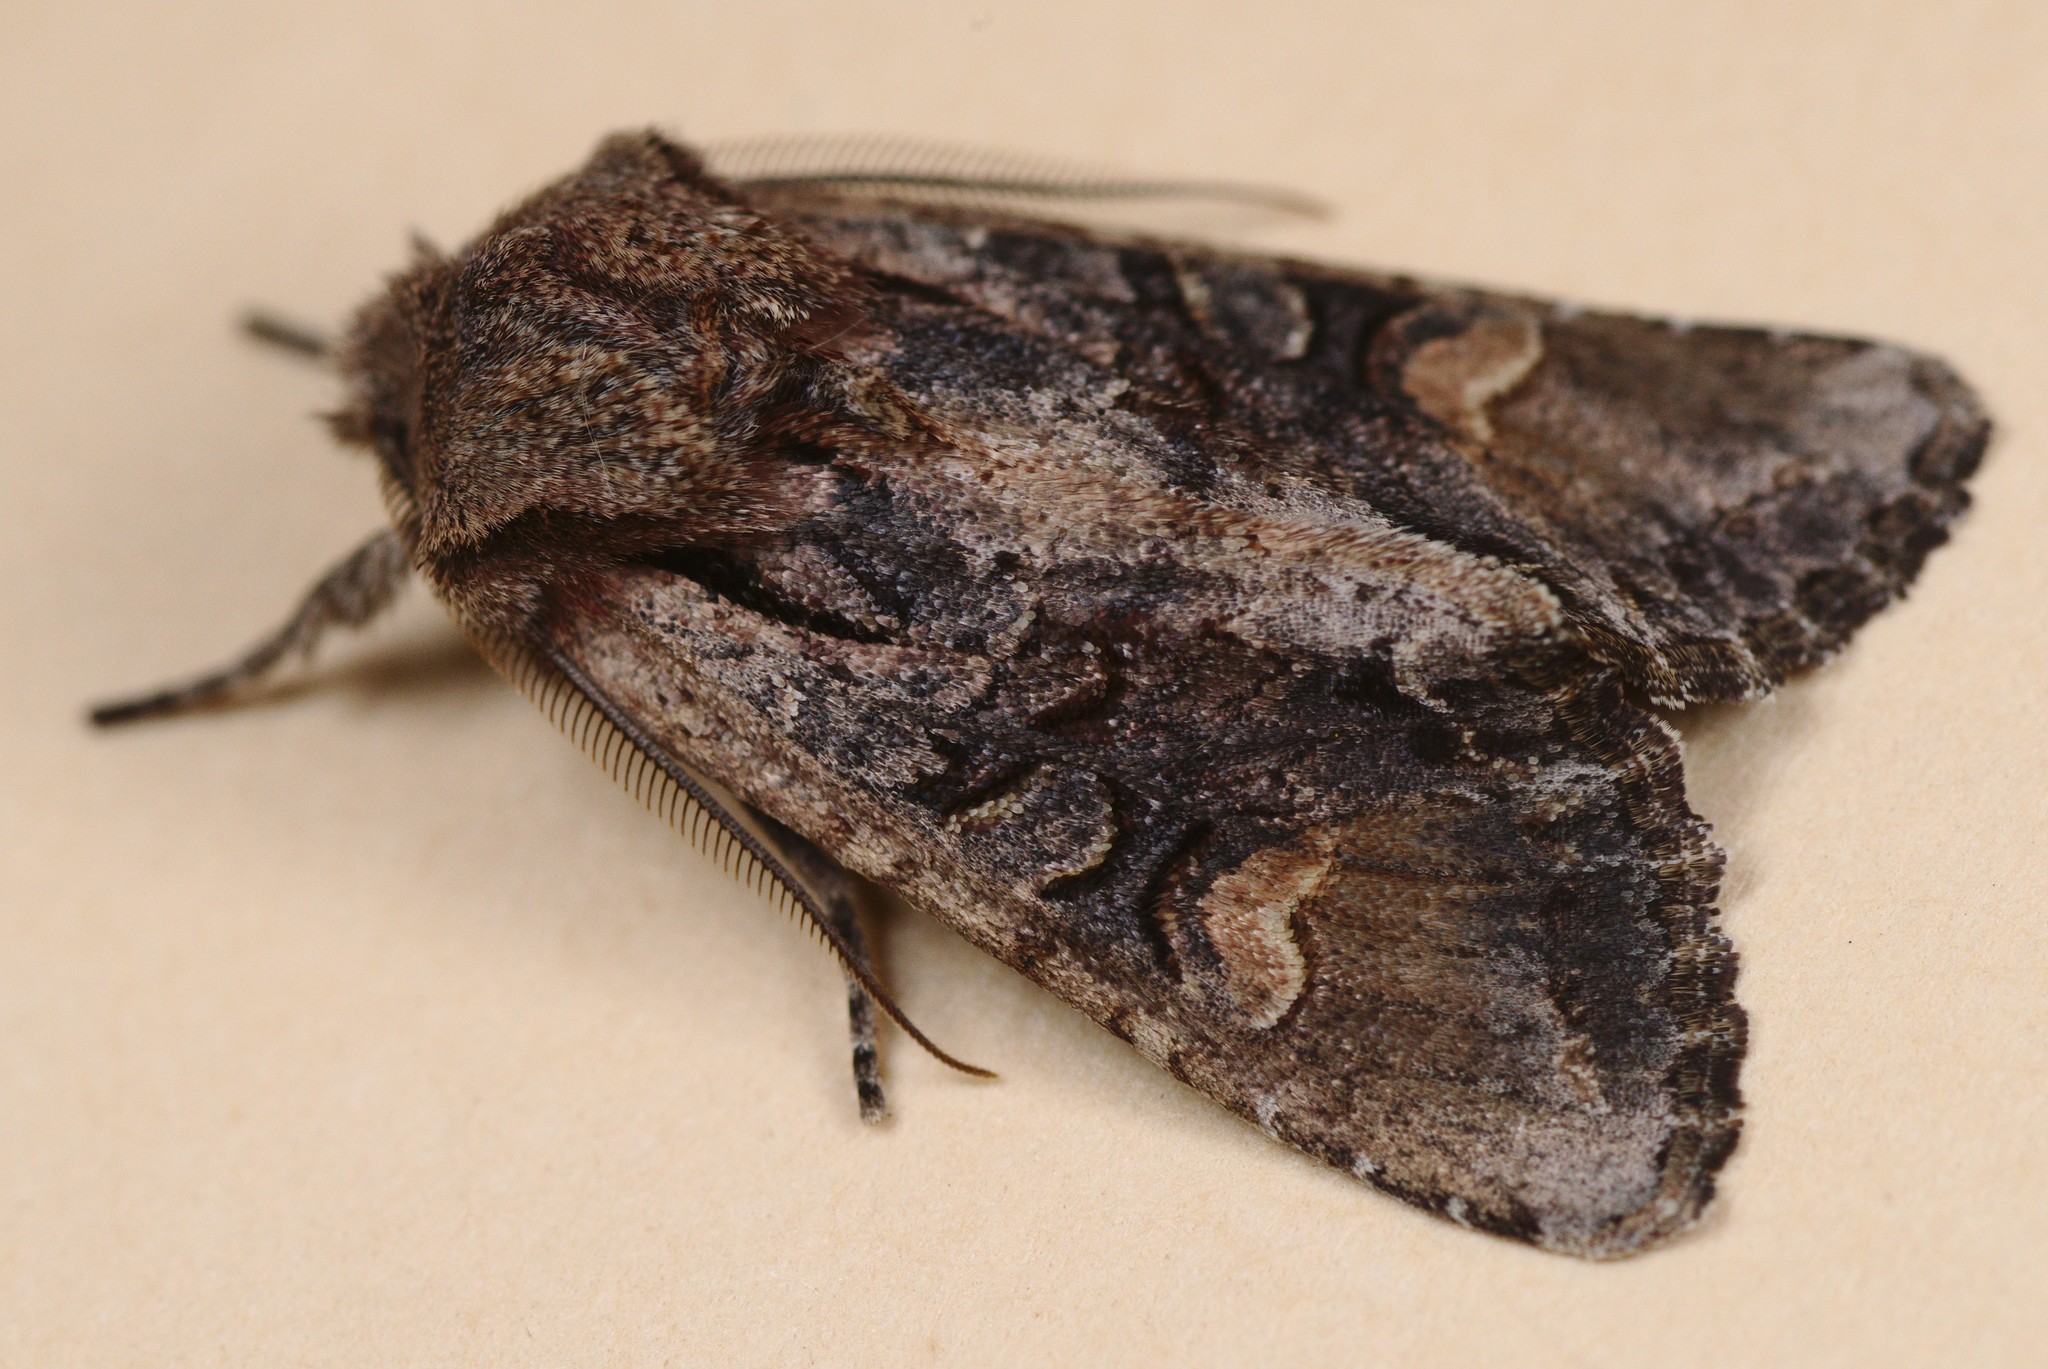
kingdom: Animalia
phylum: Arthropoda
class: Insecta
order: Lepidoptera
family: Noctuidae
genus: Ichneutica
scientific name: Ichneutica insignis
